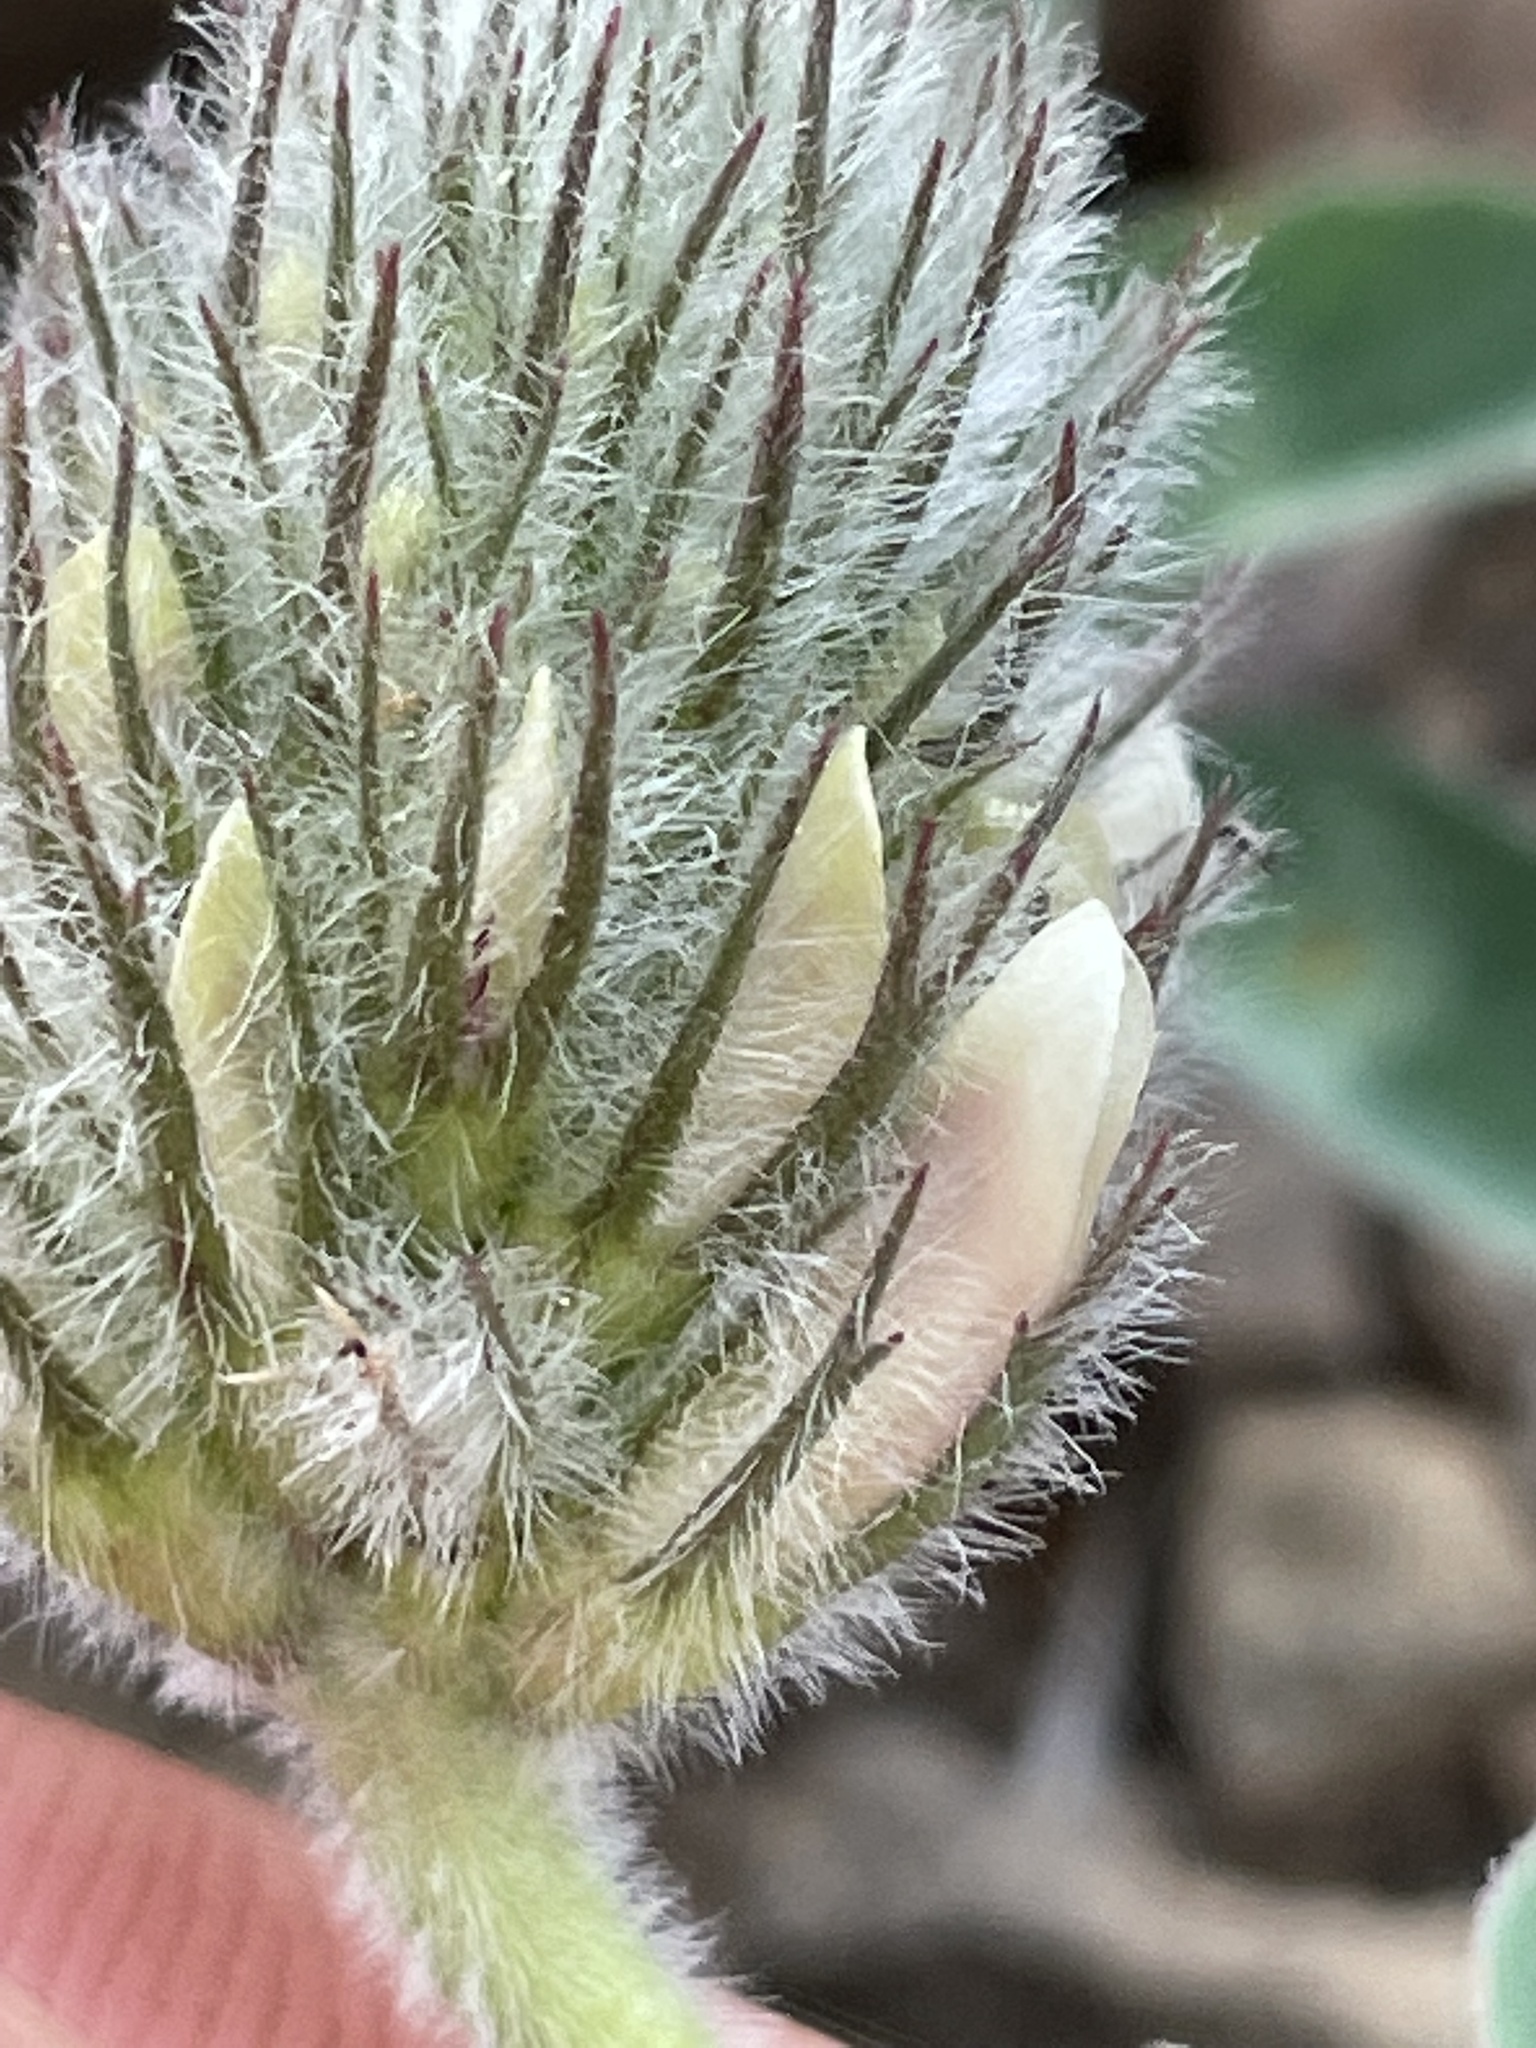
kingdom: Plantae
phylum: Tracheophyta
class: Magnoliopsida
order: Fabales
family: Fabaceae
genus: Trifolium
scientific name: Trifolium macrocephalum
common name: Large-head clover
